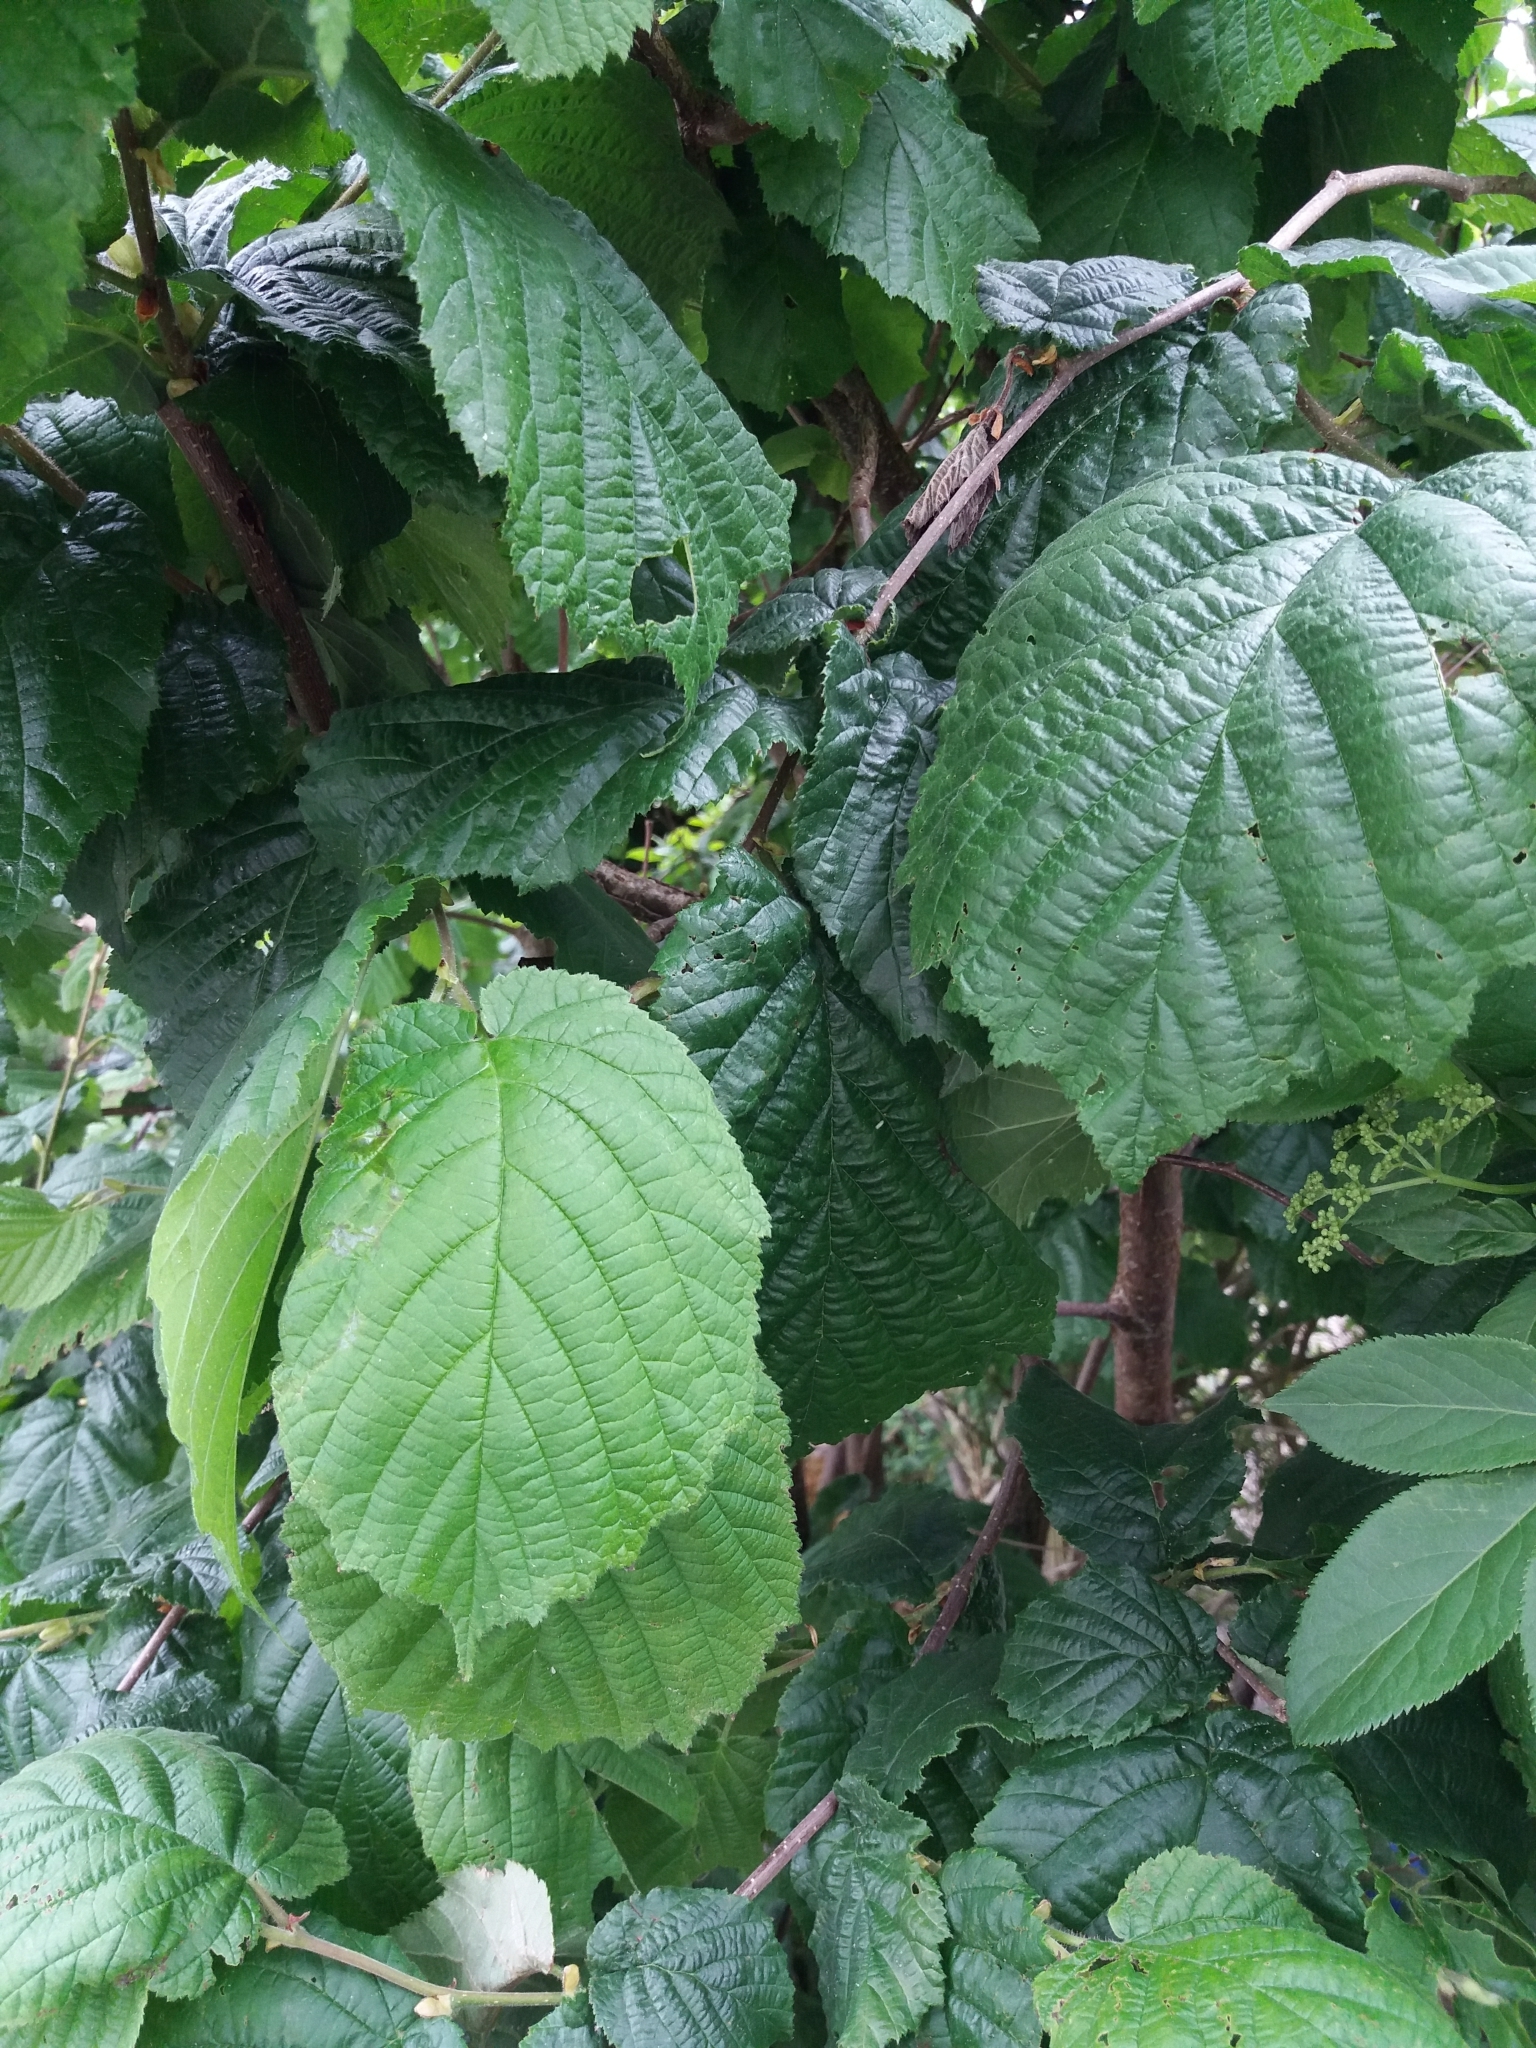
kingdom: Plantae
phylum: Tracheophyta
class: Magnoliopsida
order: Fagales
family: Betulaceae
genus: Corylus
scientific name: Corylus avellana
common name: European hazel
